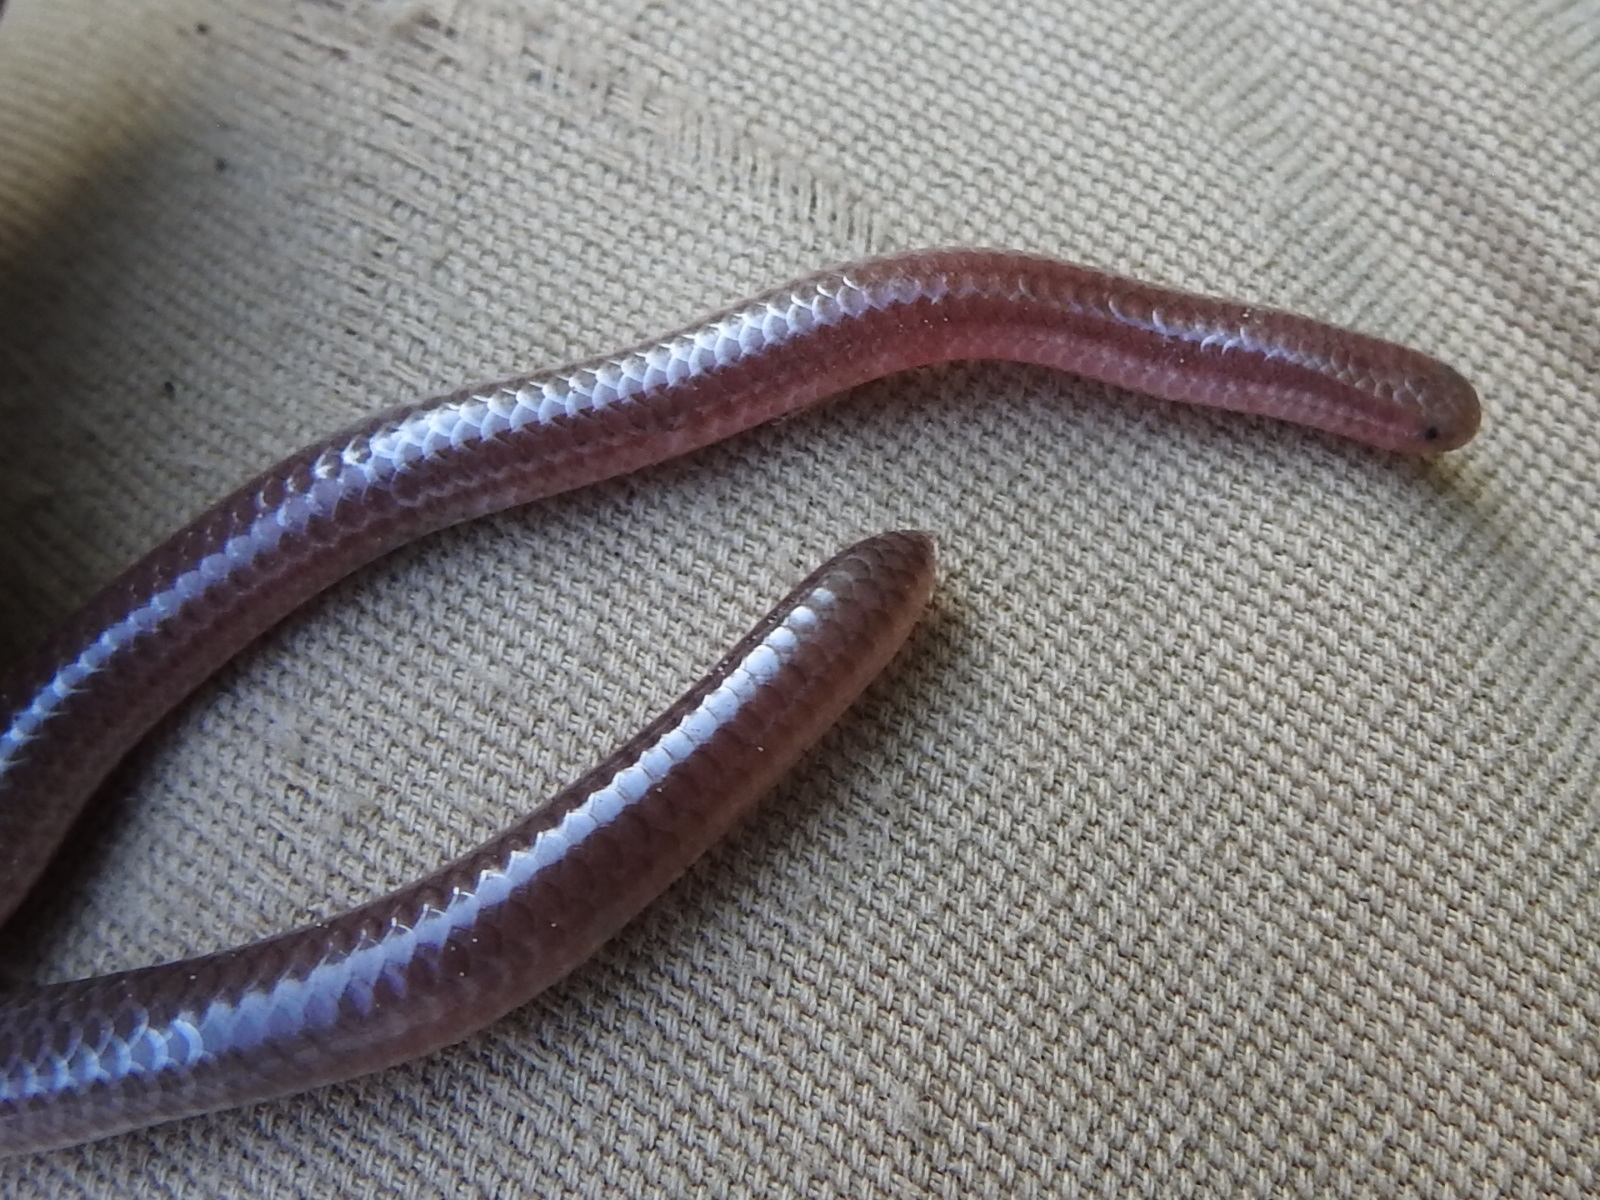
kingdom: Animalia
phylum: Chordata
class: Squamata
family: Leptotyphlopidae
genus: Rena
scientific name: Rena dulcis
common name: Texas blind snake
